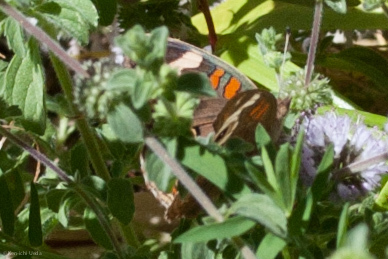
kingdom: Animalia
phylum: Arthropoda
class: Insecta
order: Lepidoptera
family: Nymphalidae
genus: Junonia
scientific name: Junonia grisea
